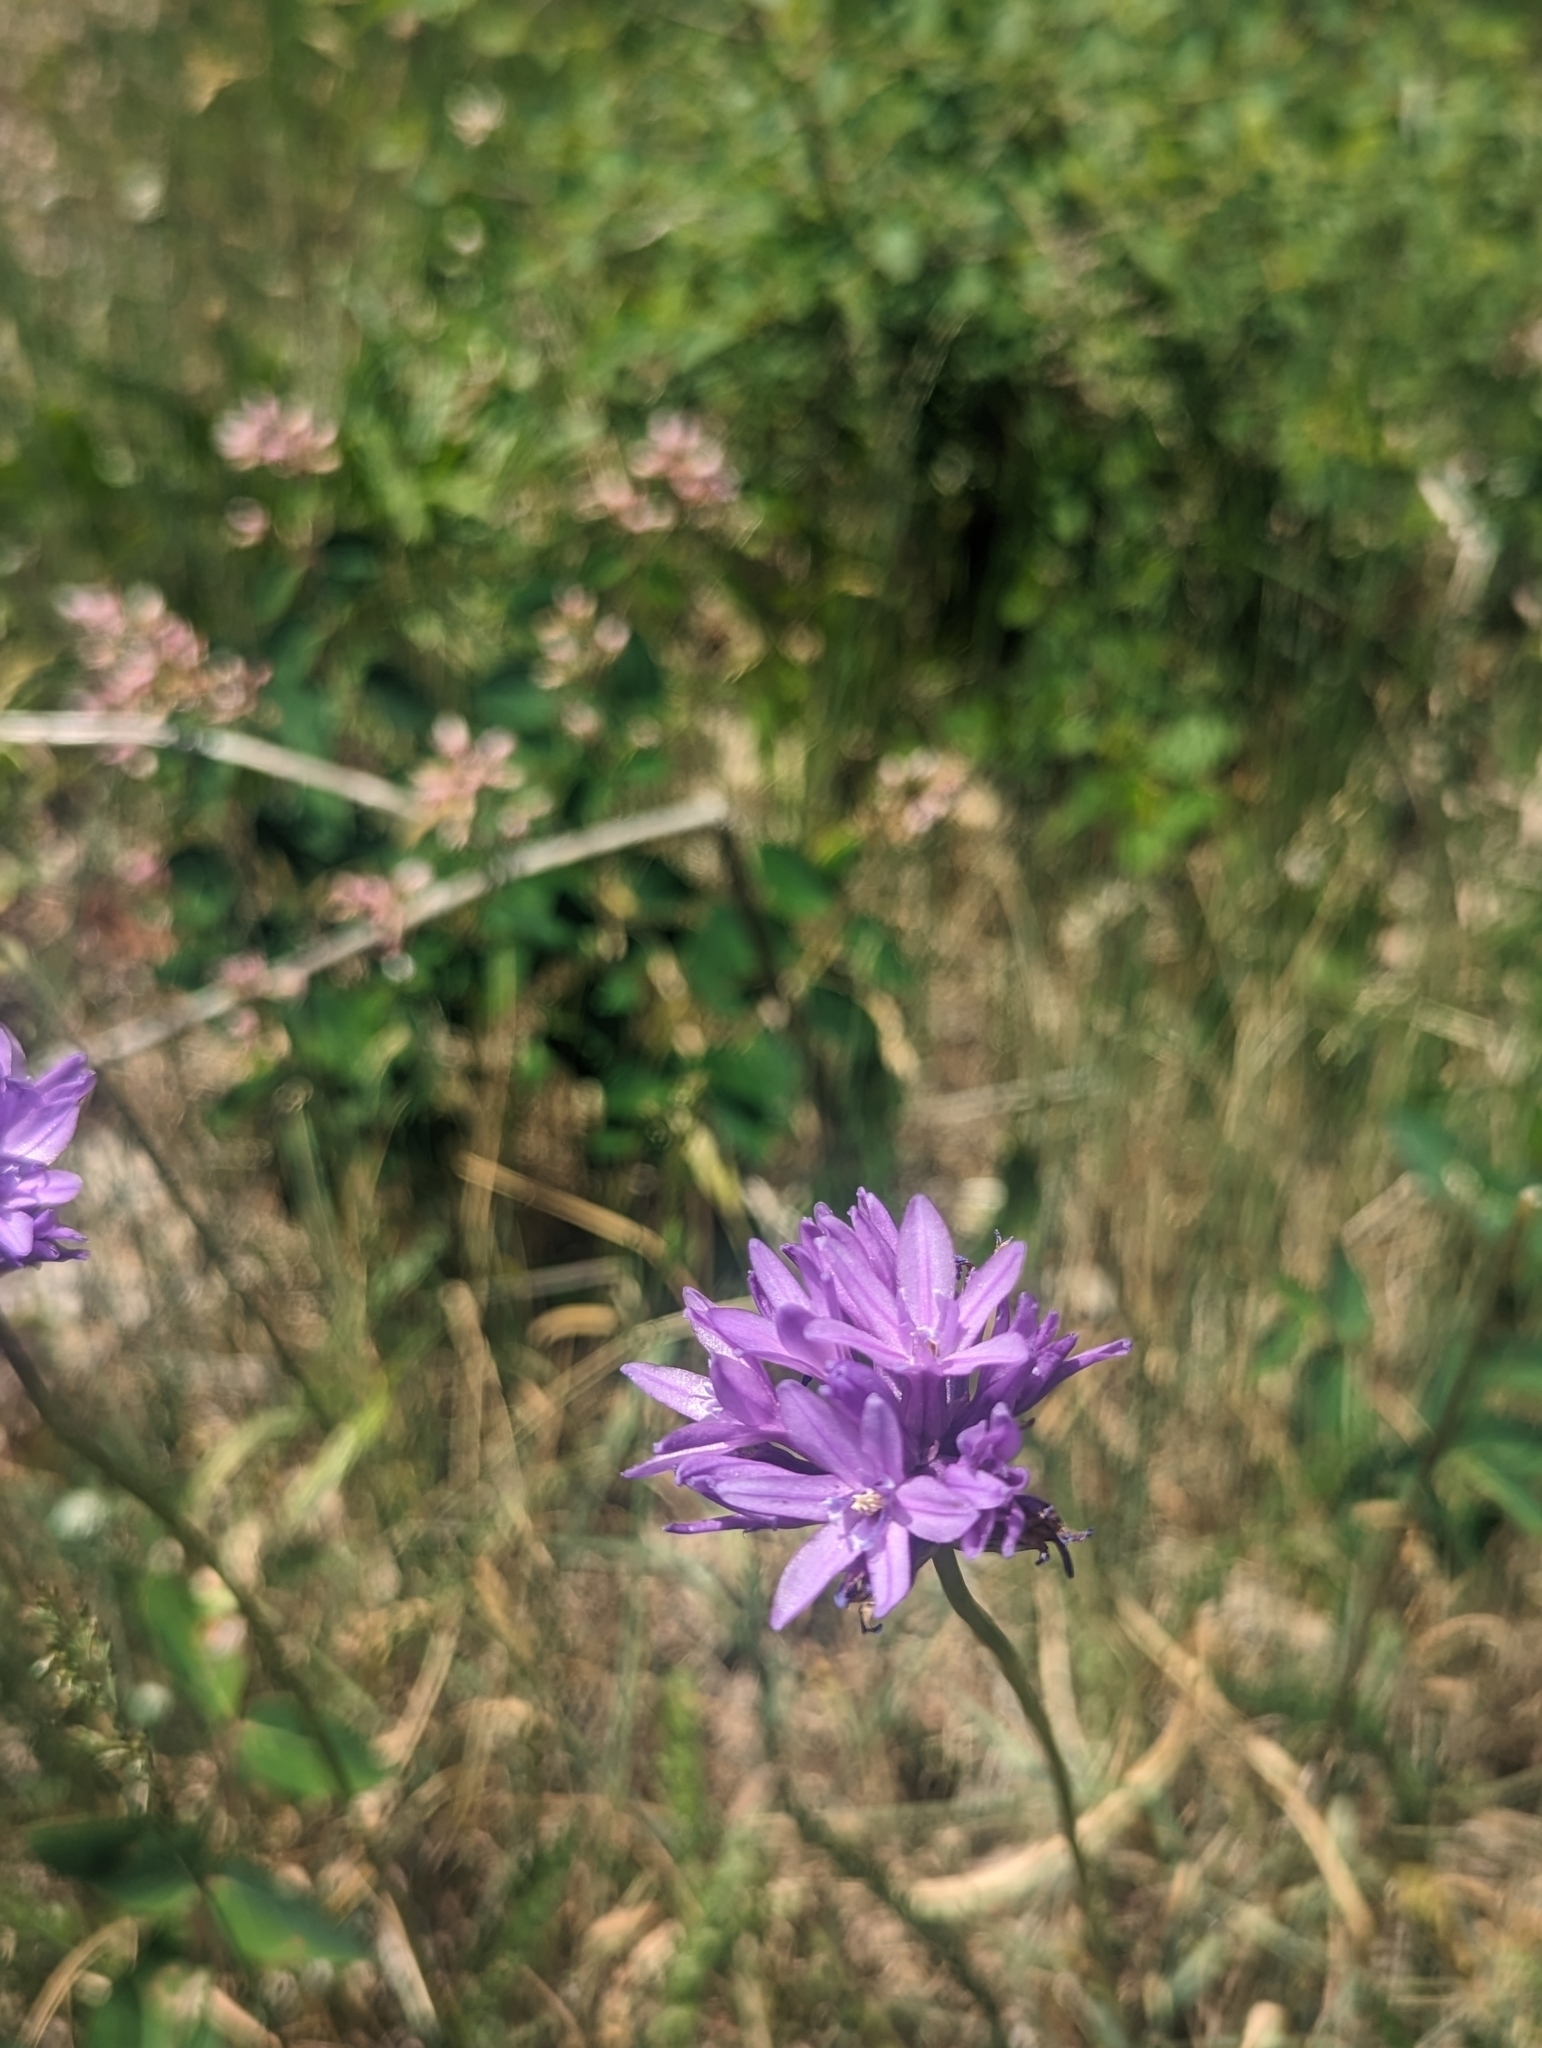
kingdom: Plantae
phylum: Tracheophyta
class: Liliopsida
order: Asparagales
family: Asparagaceae
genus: Dichelostemma
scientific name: Dichelostemma congestum
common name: Fork-tooth ookow
